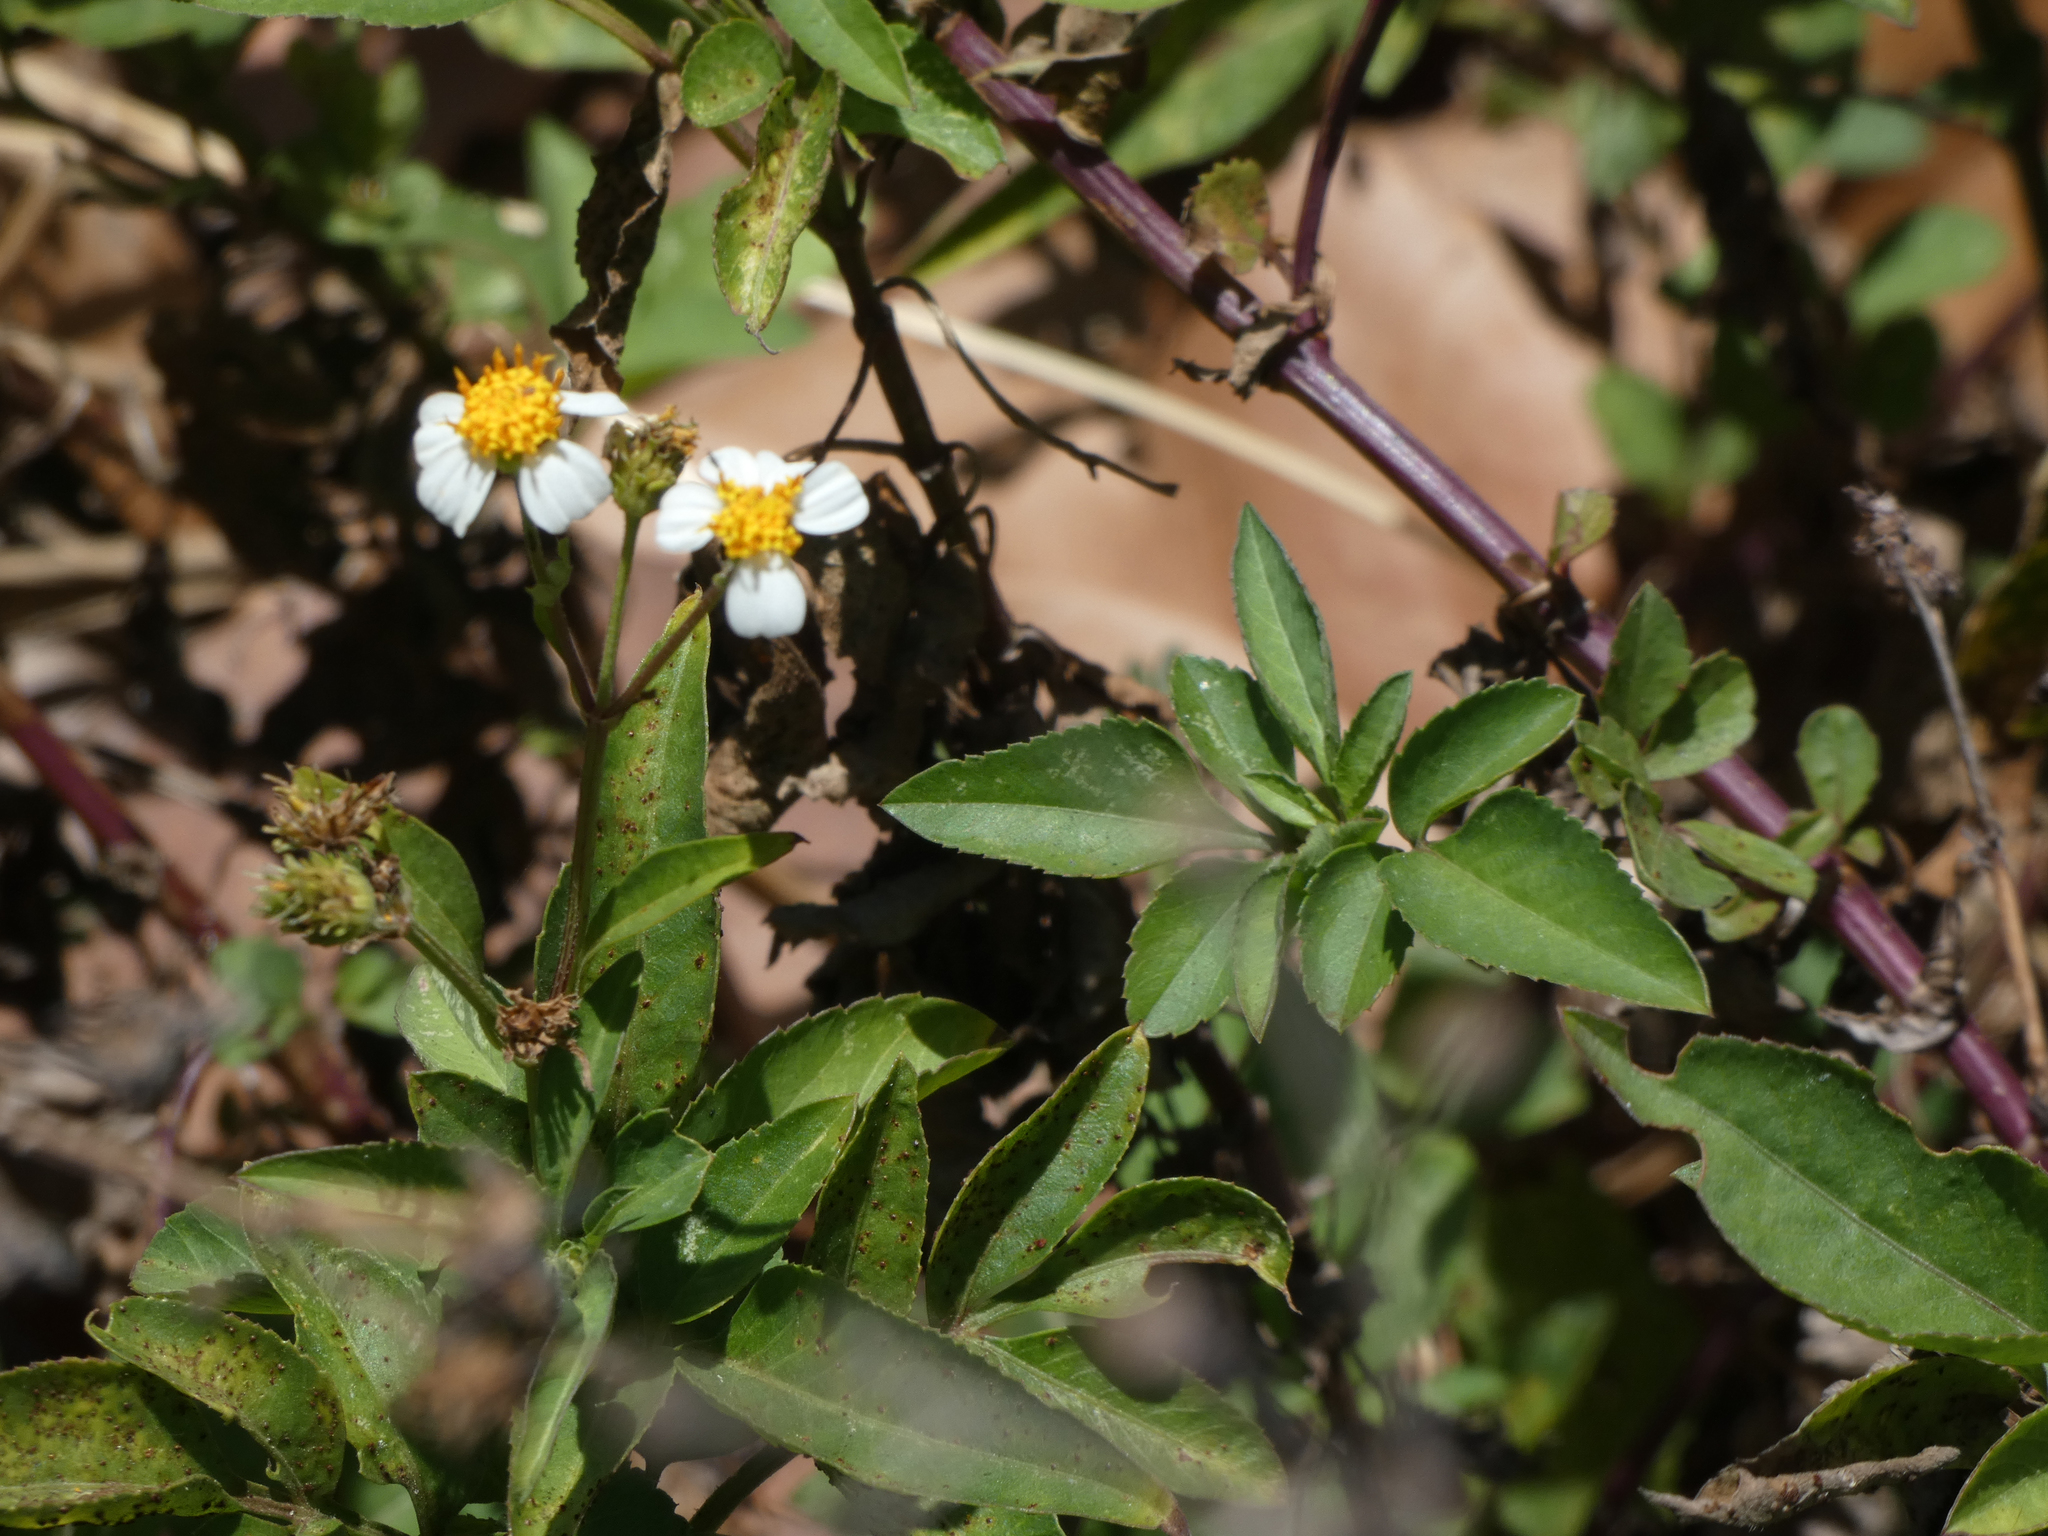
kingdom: Plantae
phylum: Tracheophyta
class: Magnoliopsida
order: Asterales
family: Asteraceae
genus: Bidens
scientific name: Bidens alba
